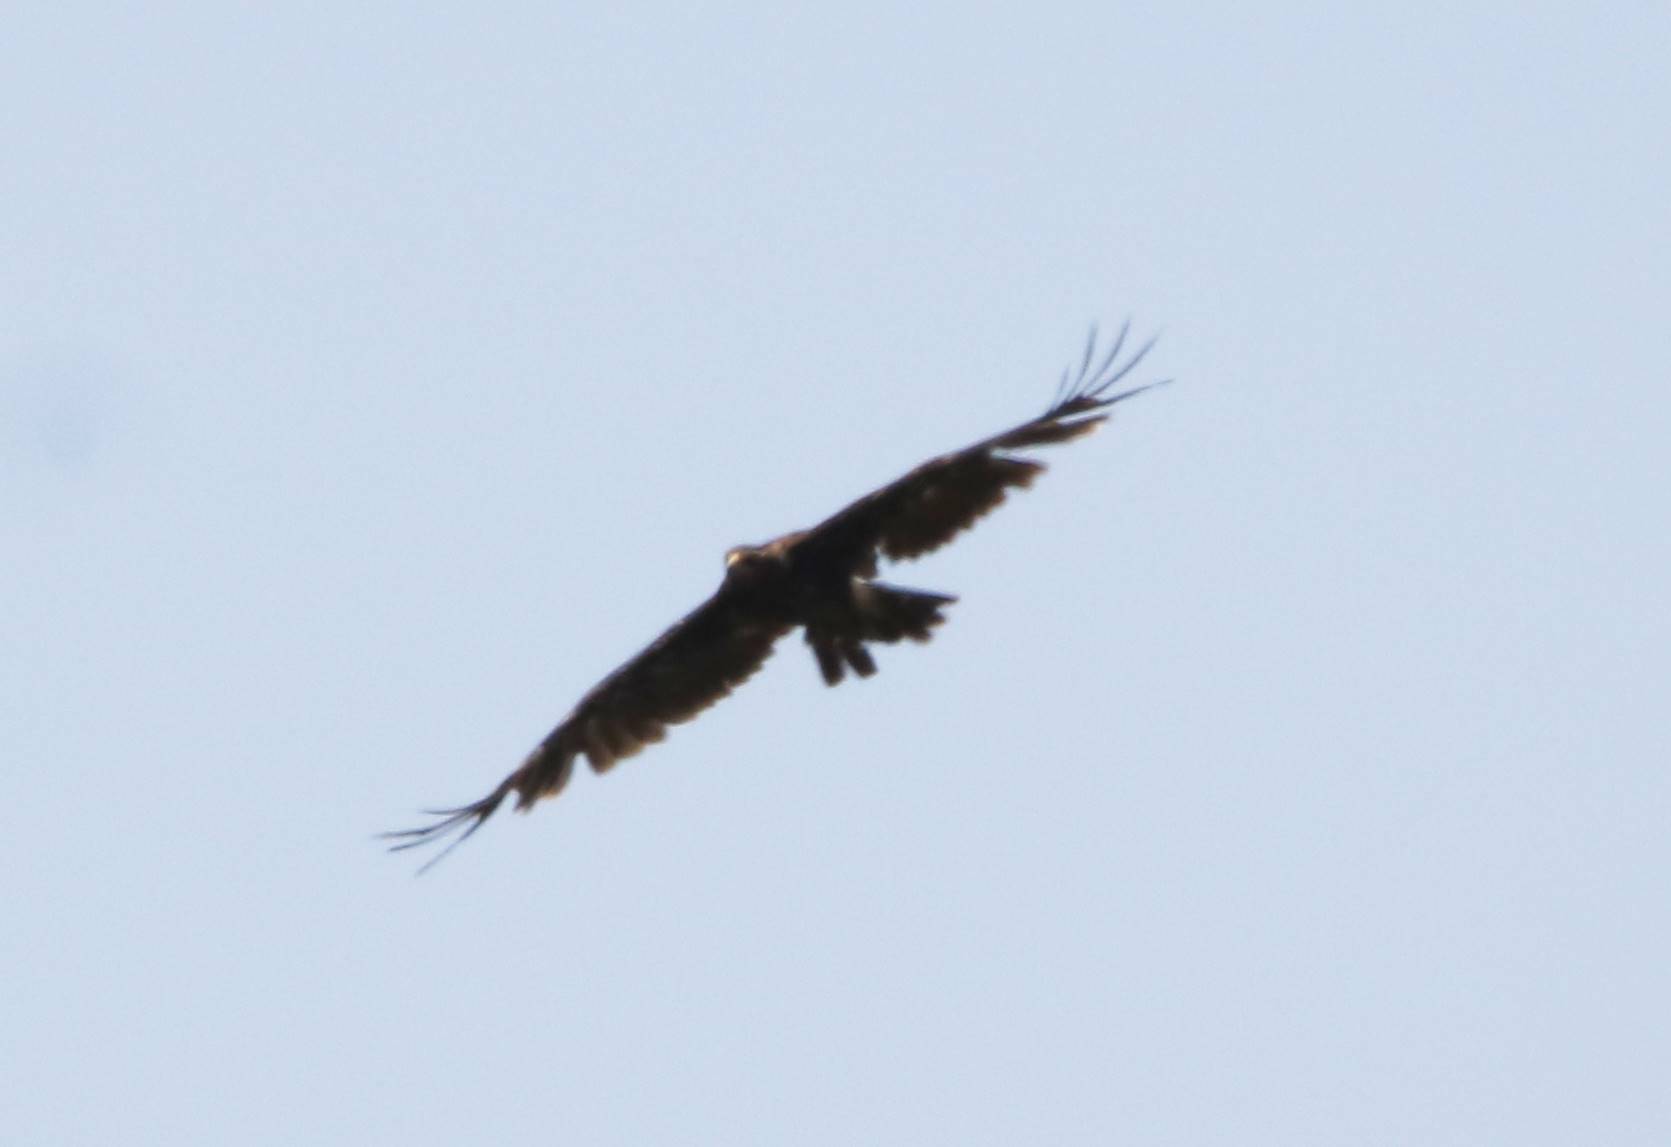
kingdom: Animalia
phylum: Chordata
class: Aves
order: Accipitriformes
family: Accipitridae
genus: Aquila
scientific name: Aquila clanga
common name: Greater spotted eagle
